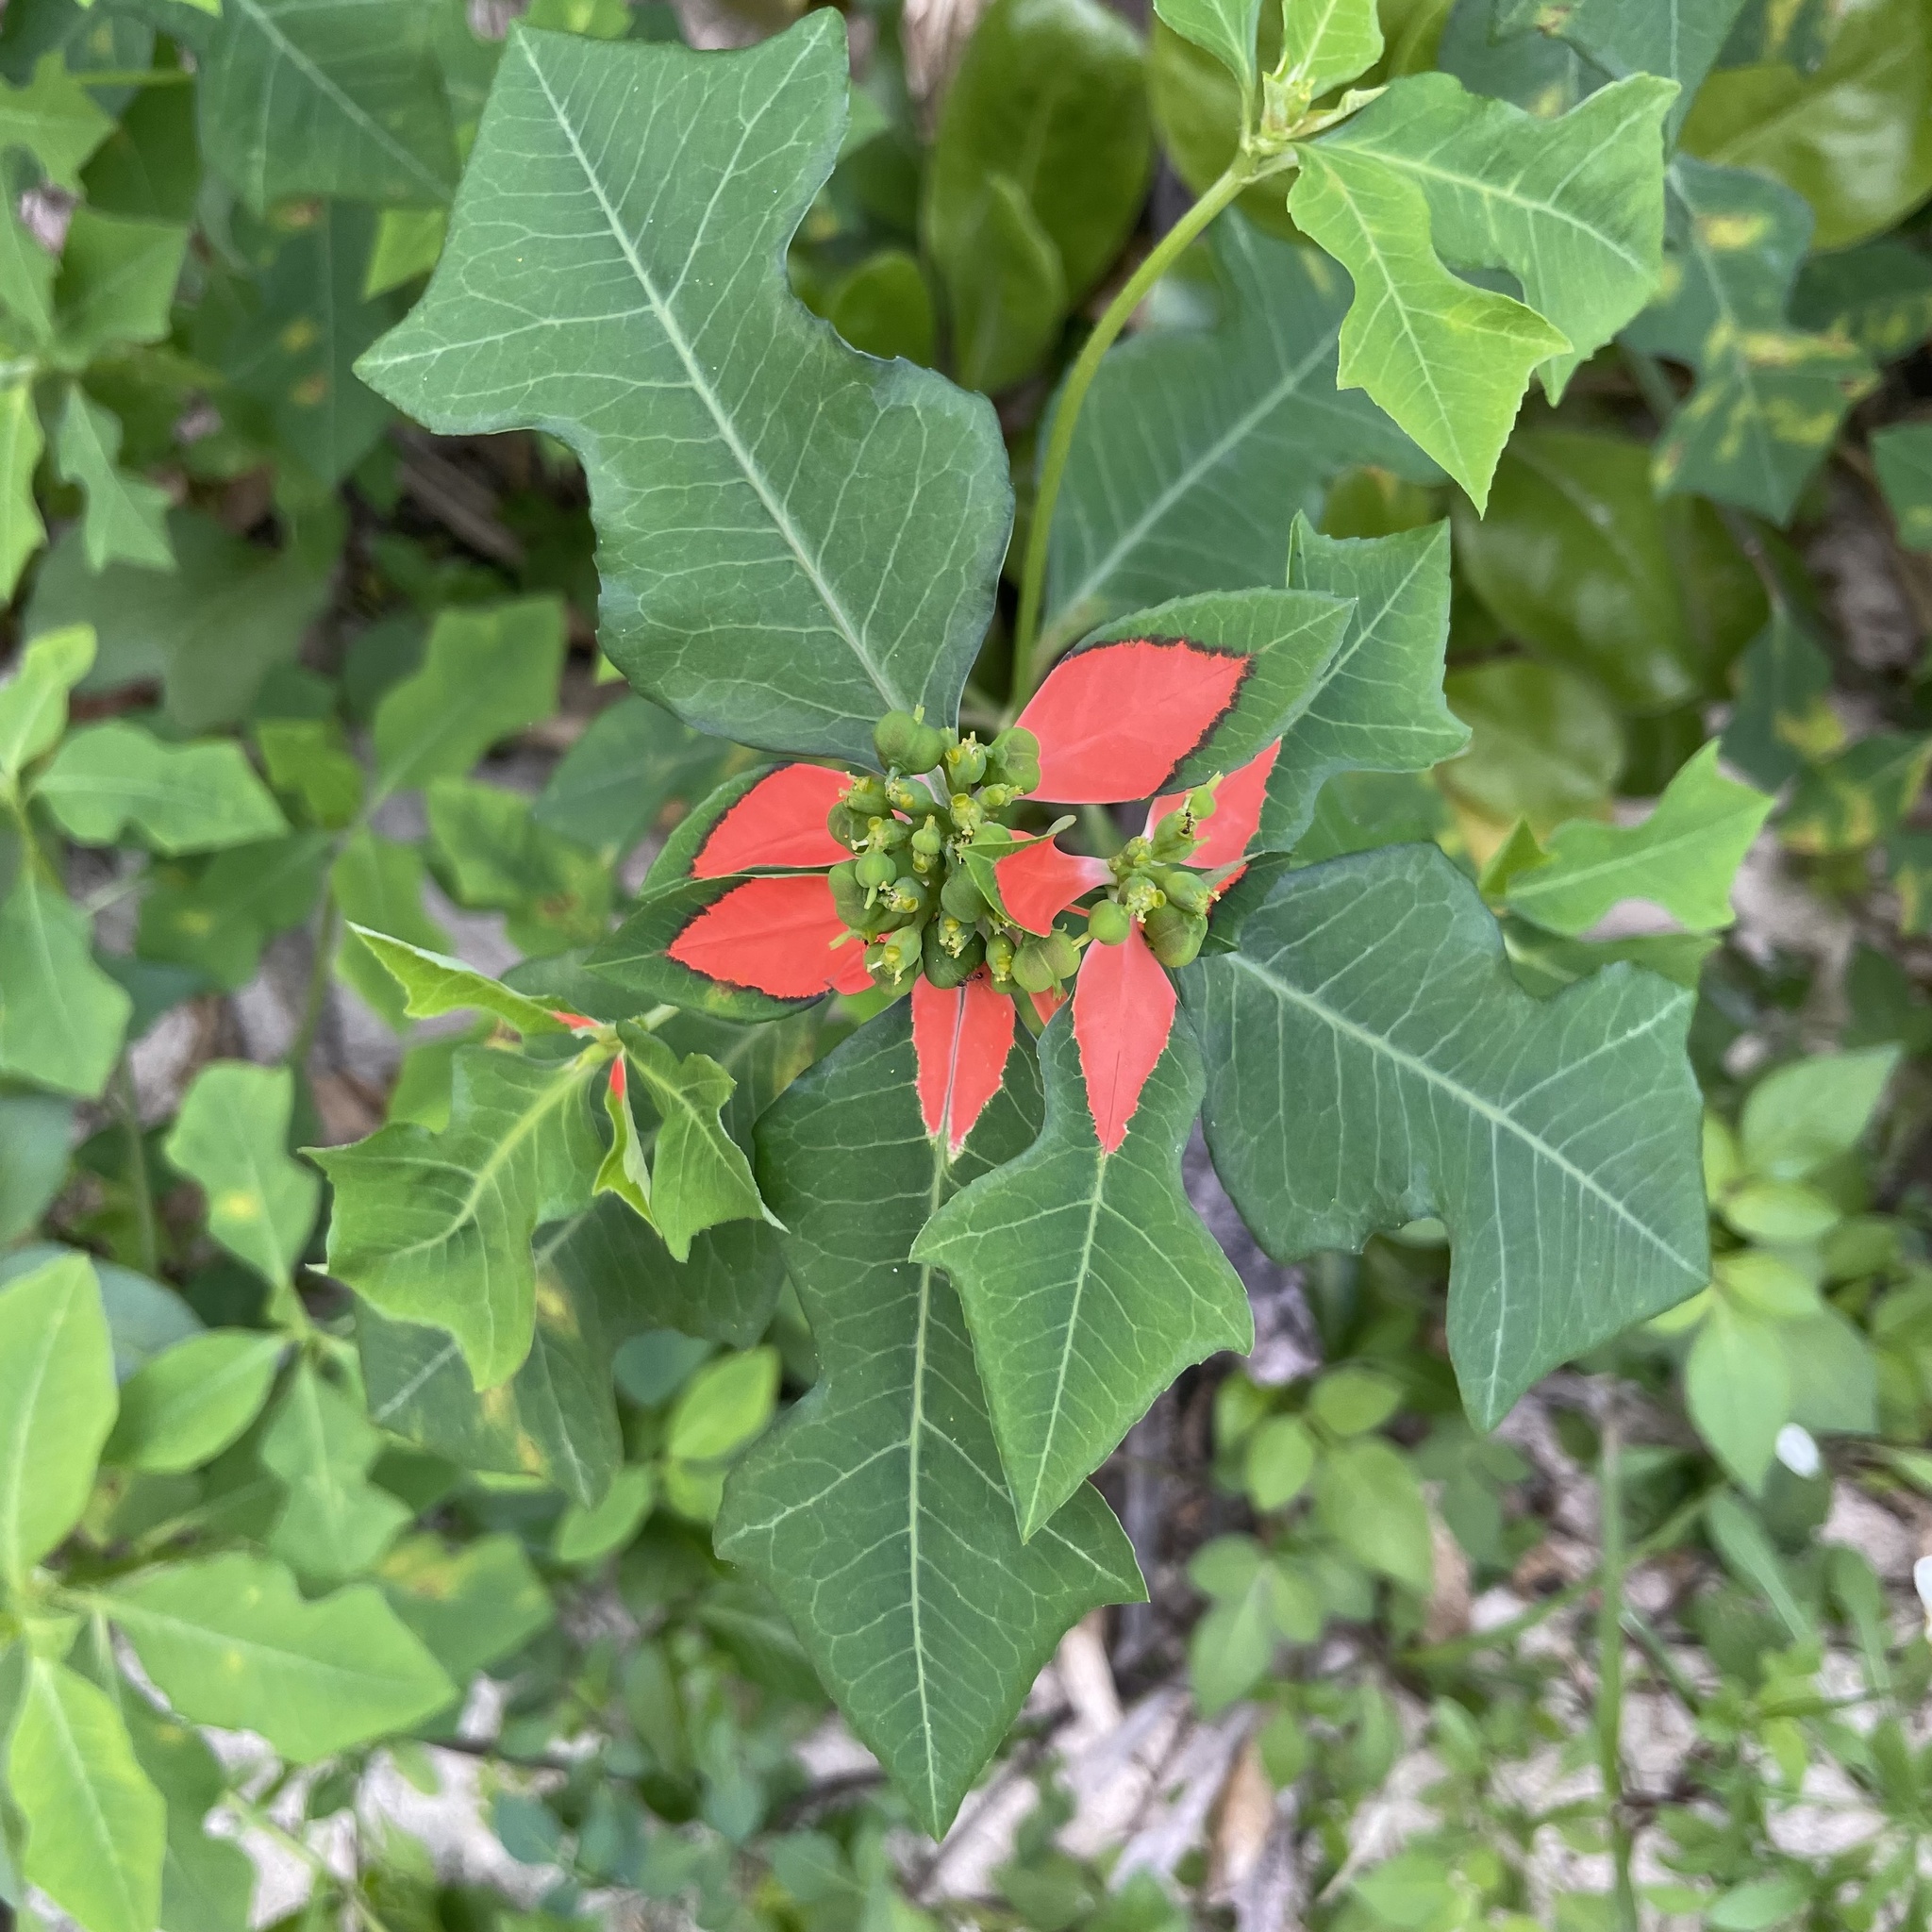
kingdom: Plantae
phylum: Tracheophyta
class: Magnoliopsida
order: Malpighiales
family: Euphorbiaceae
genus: Euphorbia
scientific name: Euphorbia heterophylla
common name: Mexican fireplant
